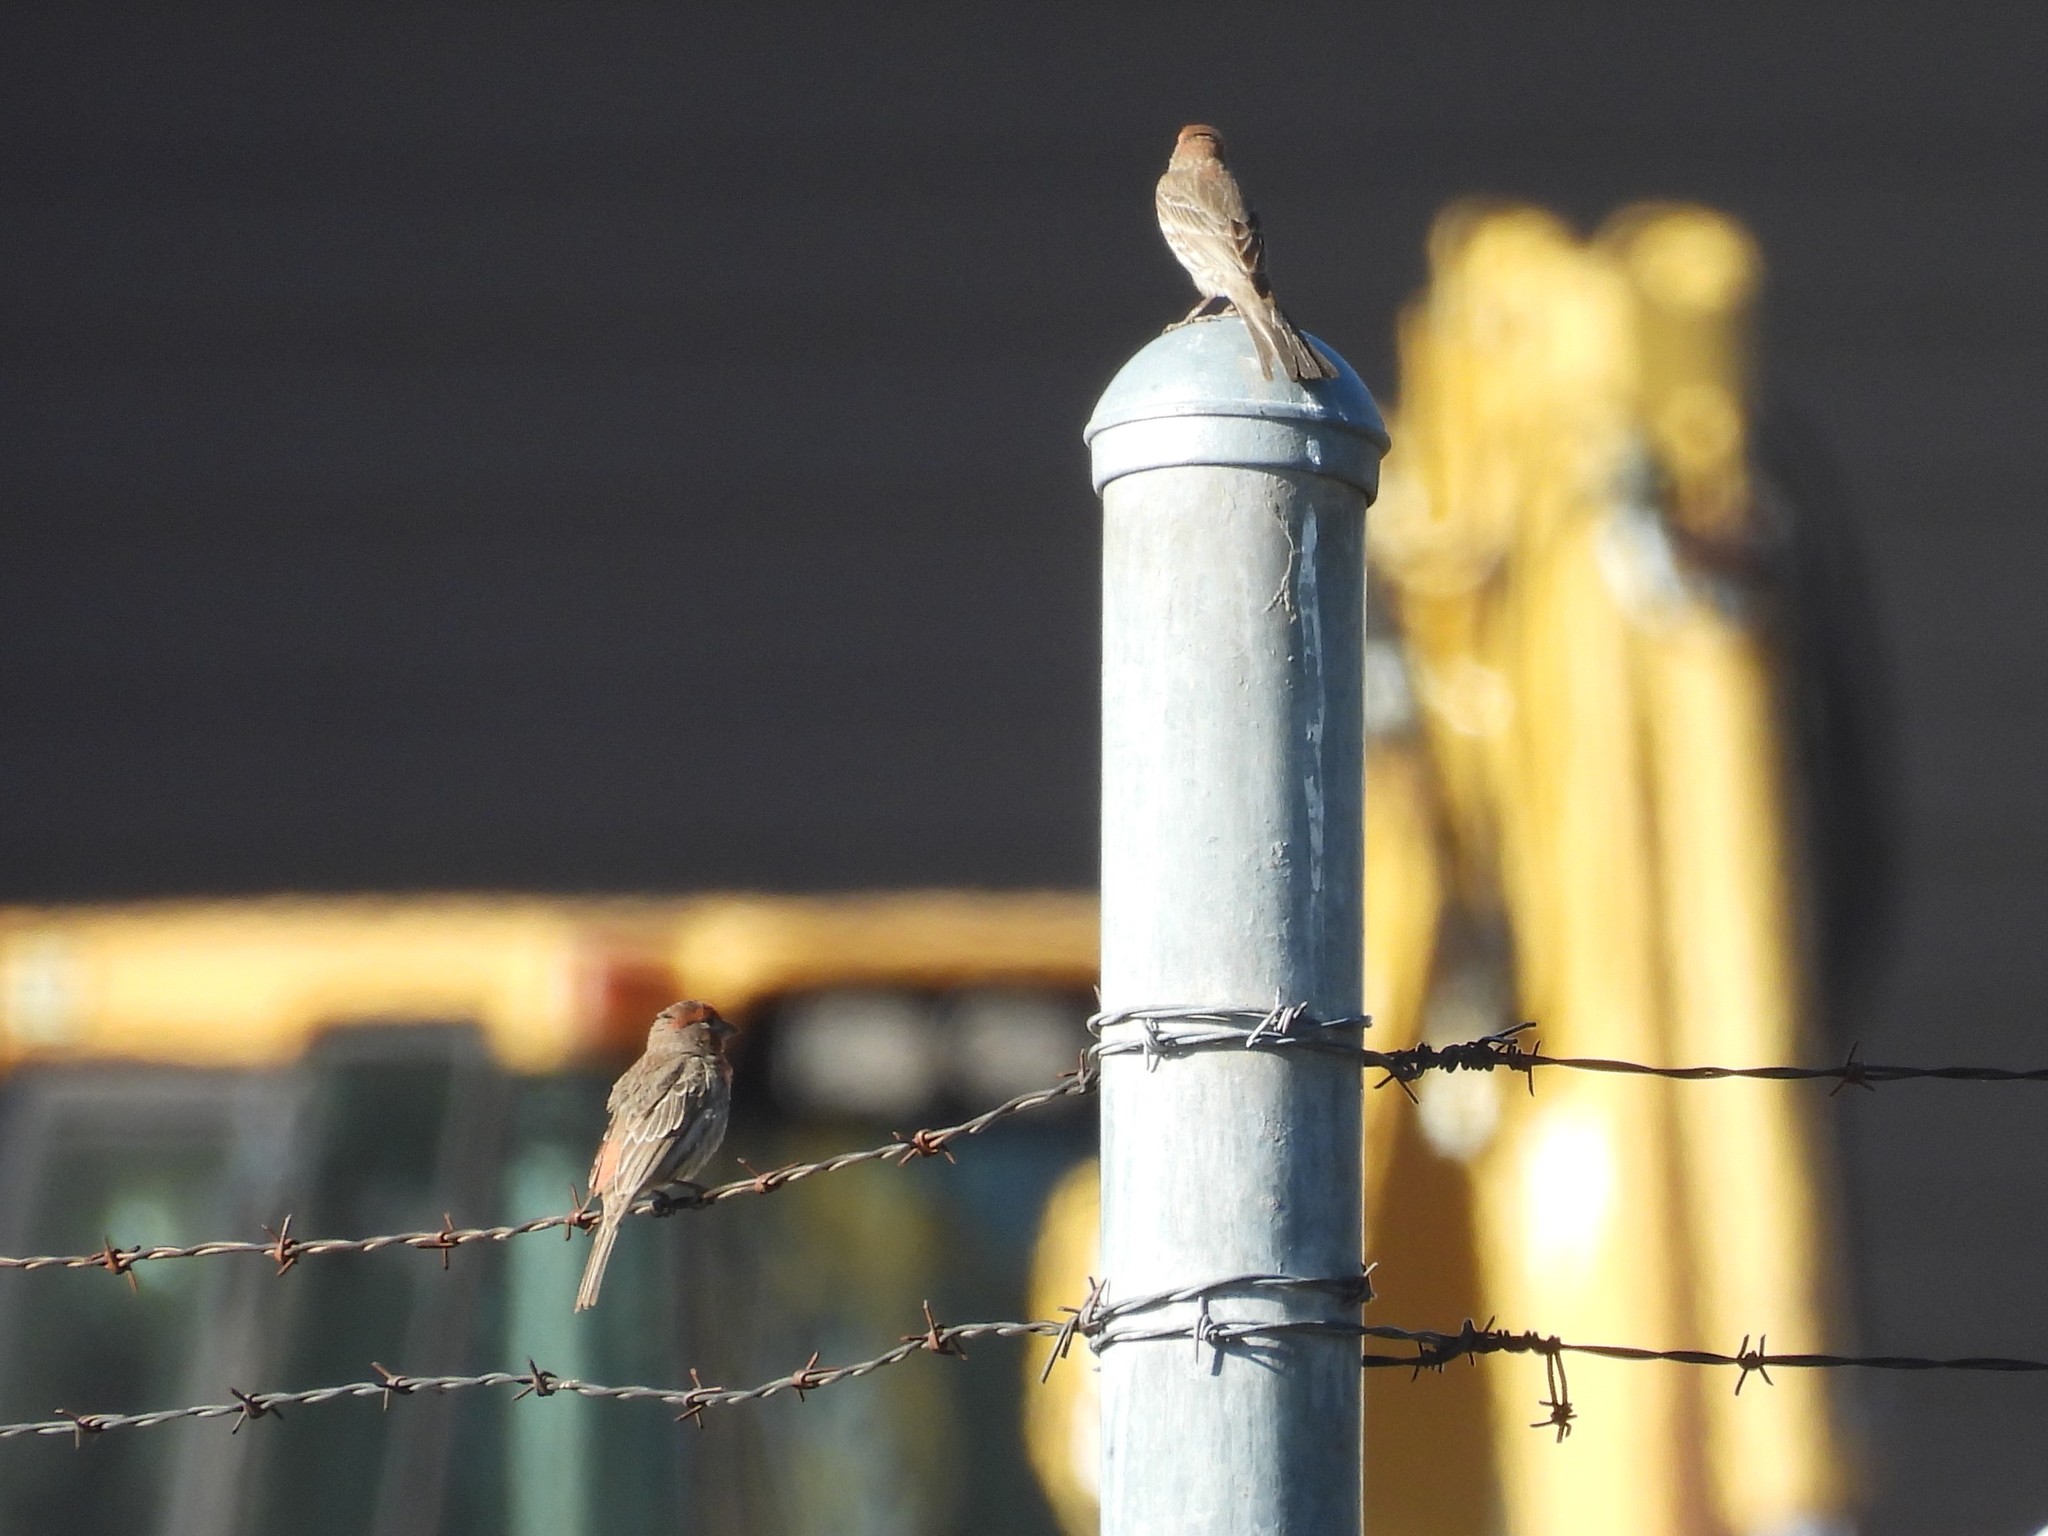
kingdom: Animalia
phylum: Chordata
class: Aves
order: Passeriformes
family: Fringillidae
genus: Haemorhous
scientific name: Haemorhous mexicanus
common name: House finch
